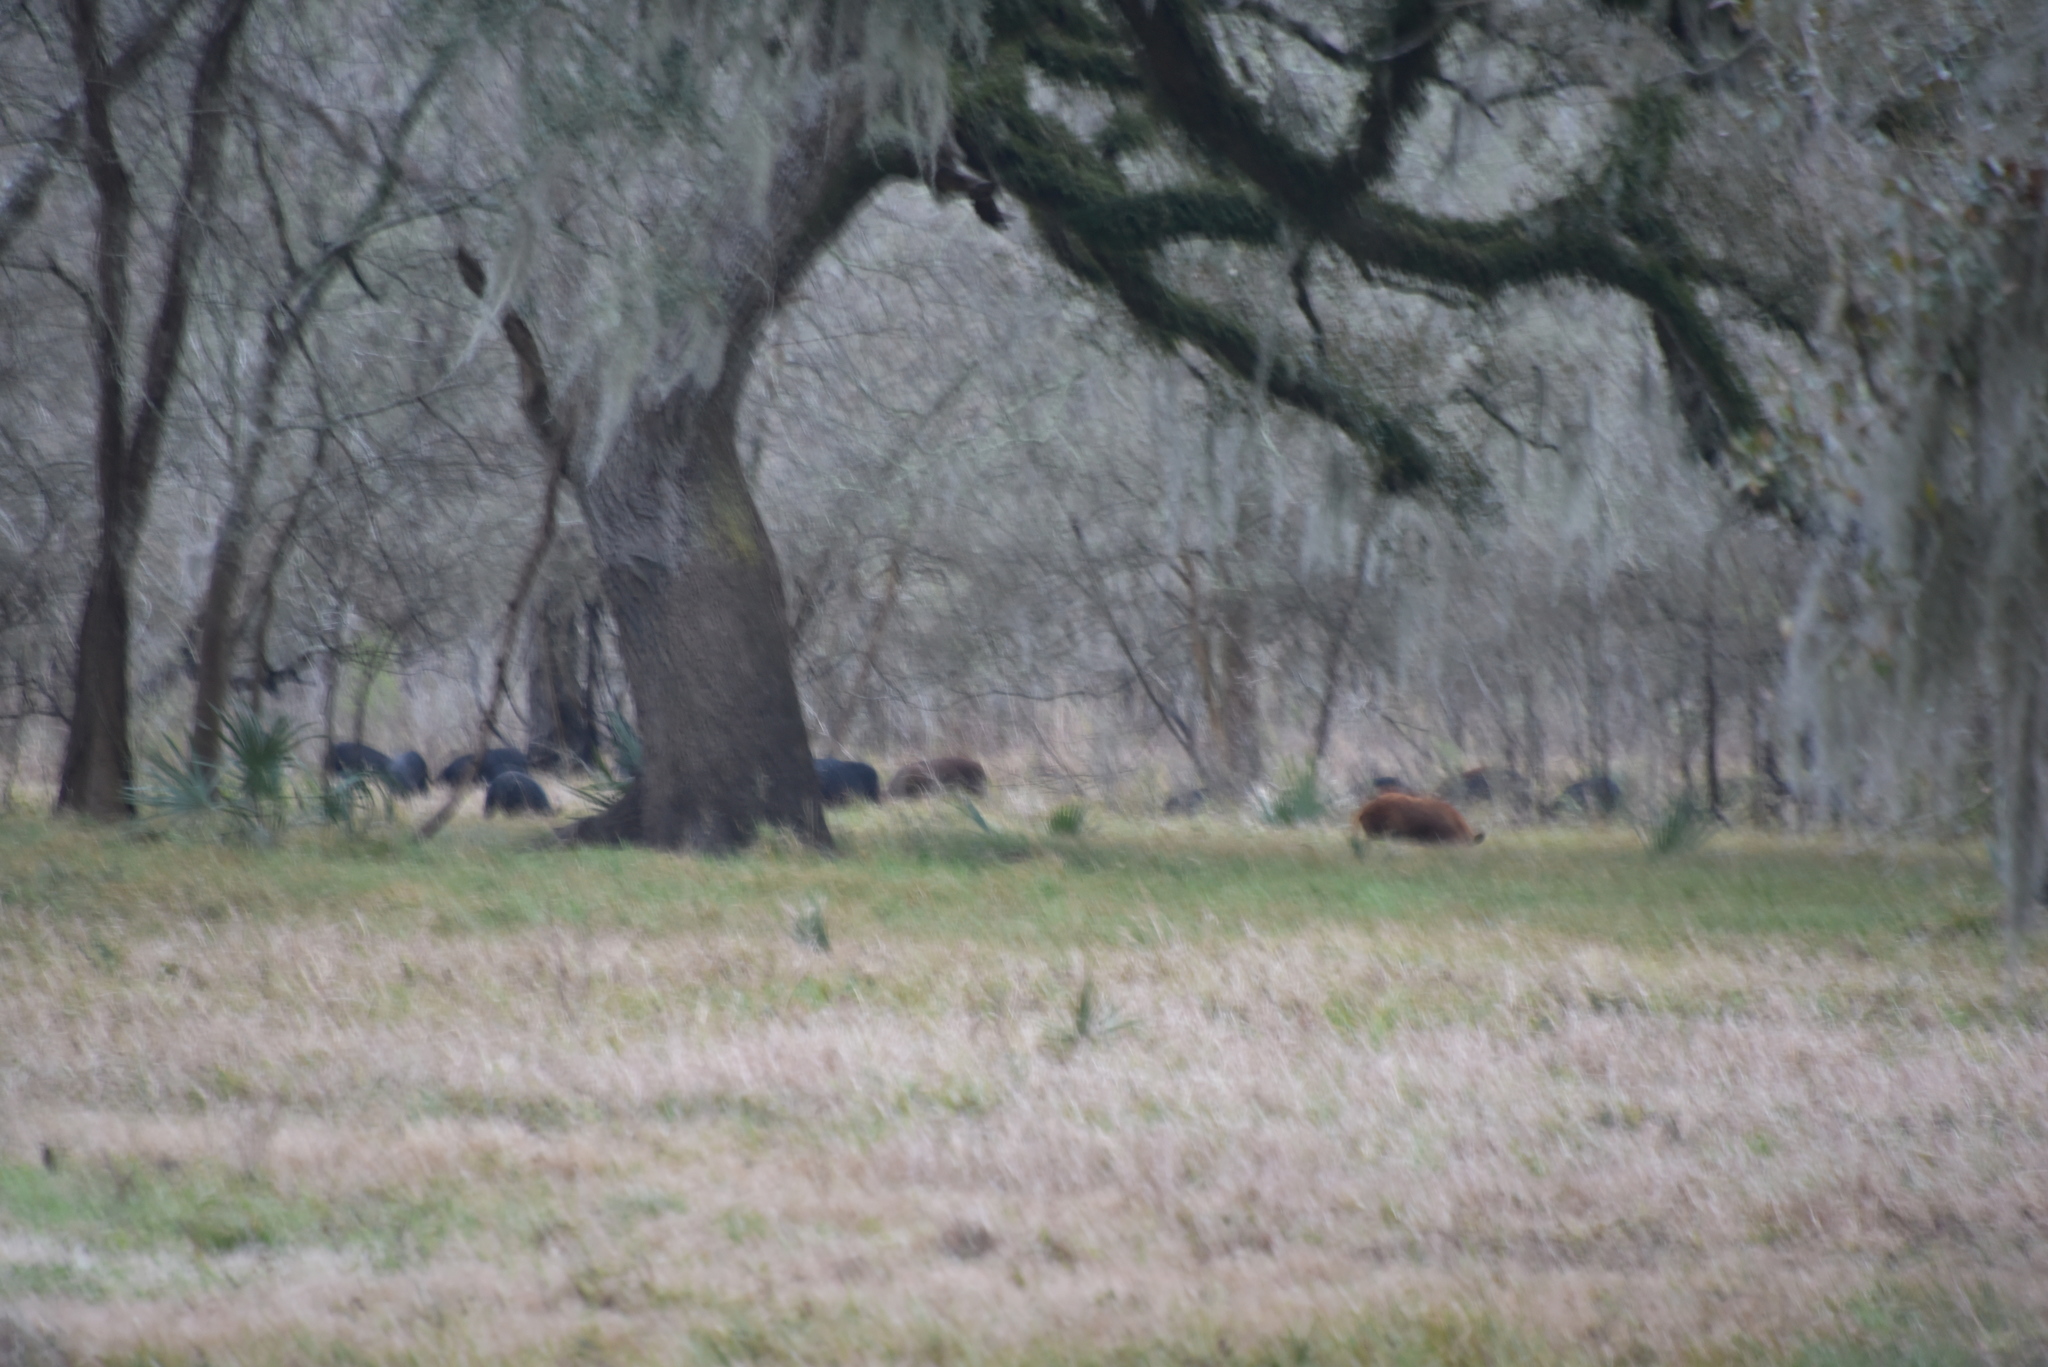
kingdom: Animalia
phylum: Chordata
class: Mammalia
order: Artiodactyla
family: Suidae
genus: Sus
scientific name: Sus scrofa
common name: Wild boar
